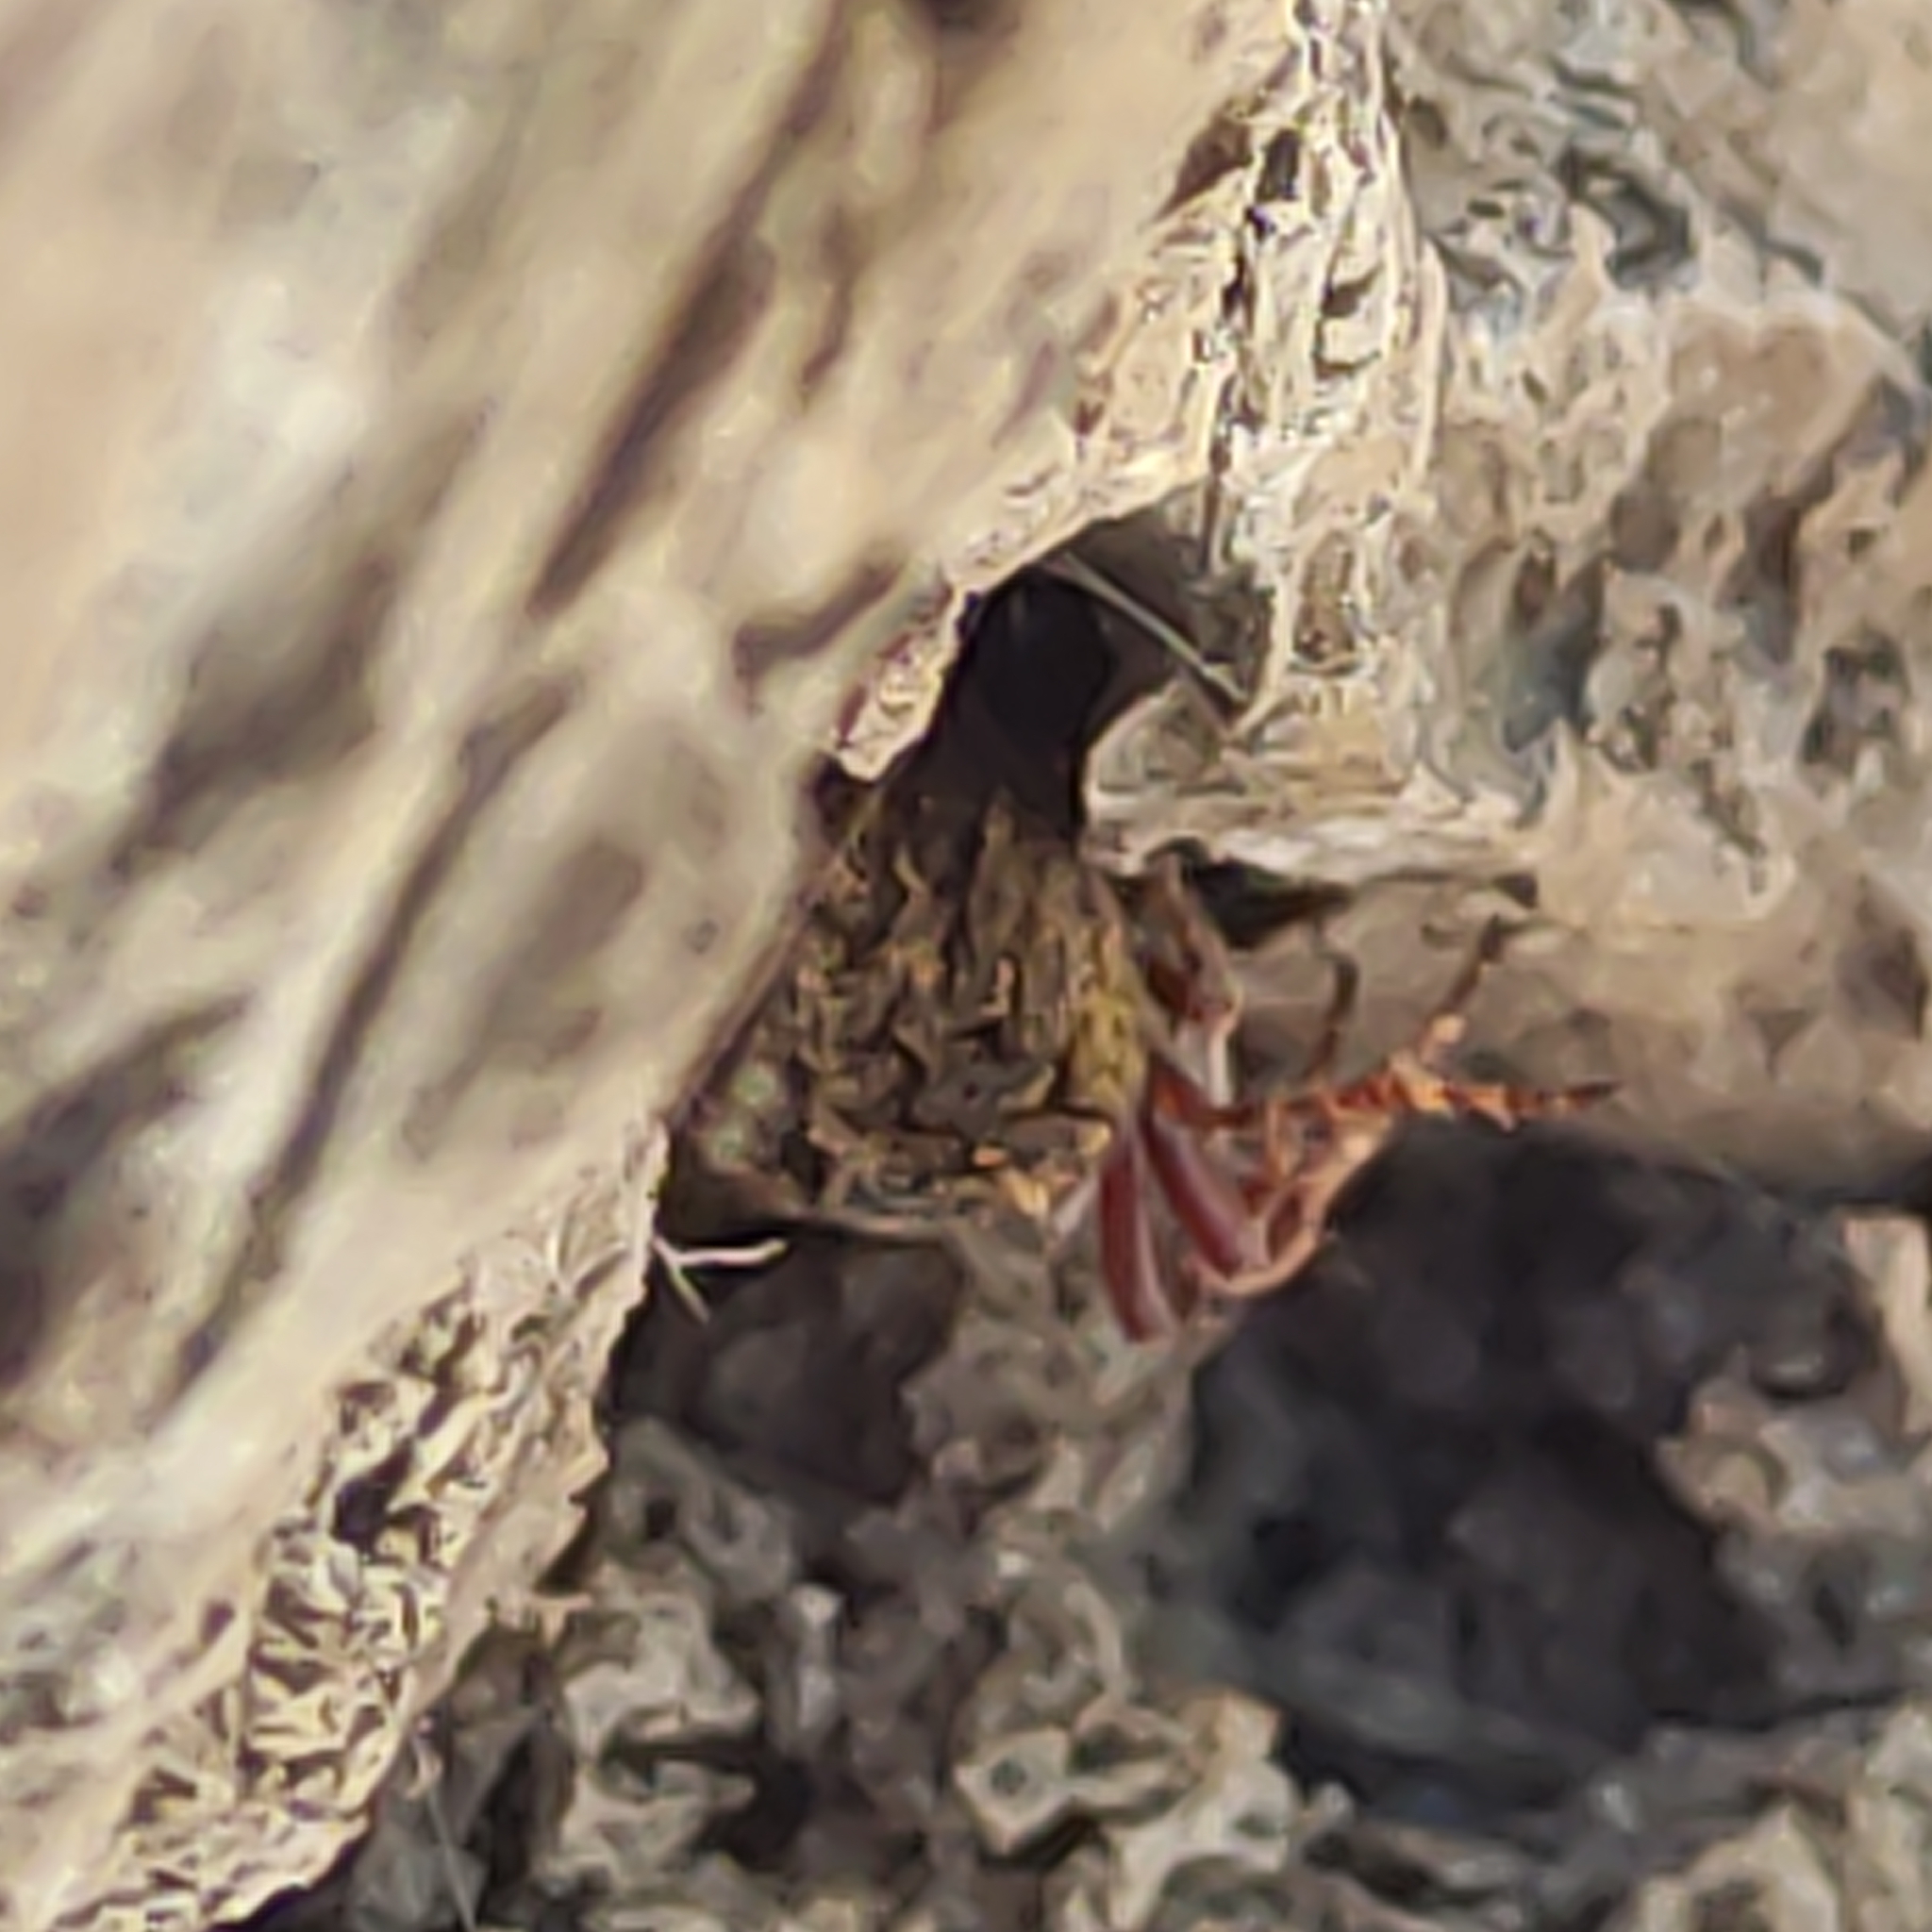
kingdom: Animalia
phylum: Arthropoda
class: Arachnida
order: Araneae
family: Araneidae
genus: Eriophora
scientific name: Eriophora pustulosa
